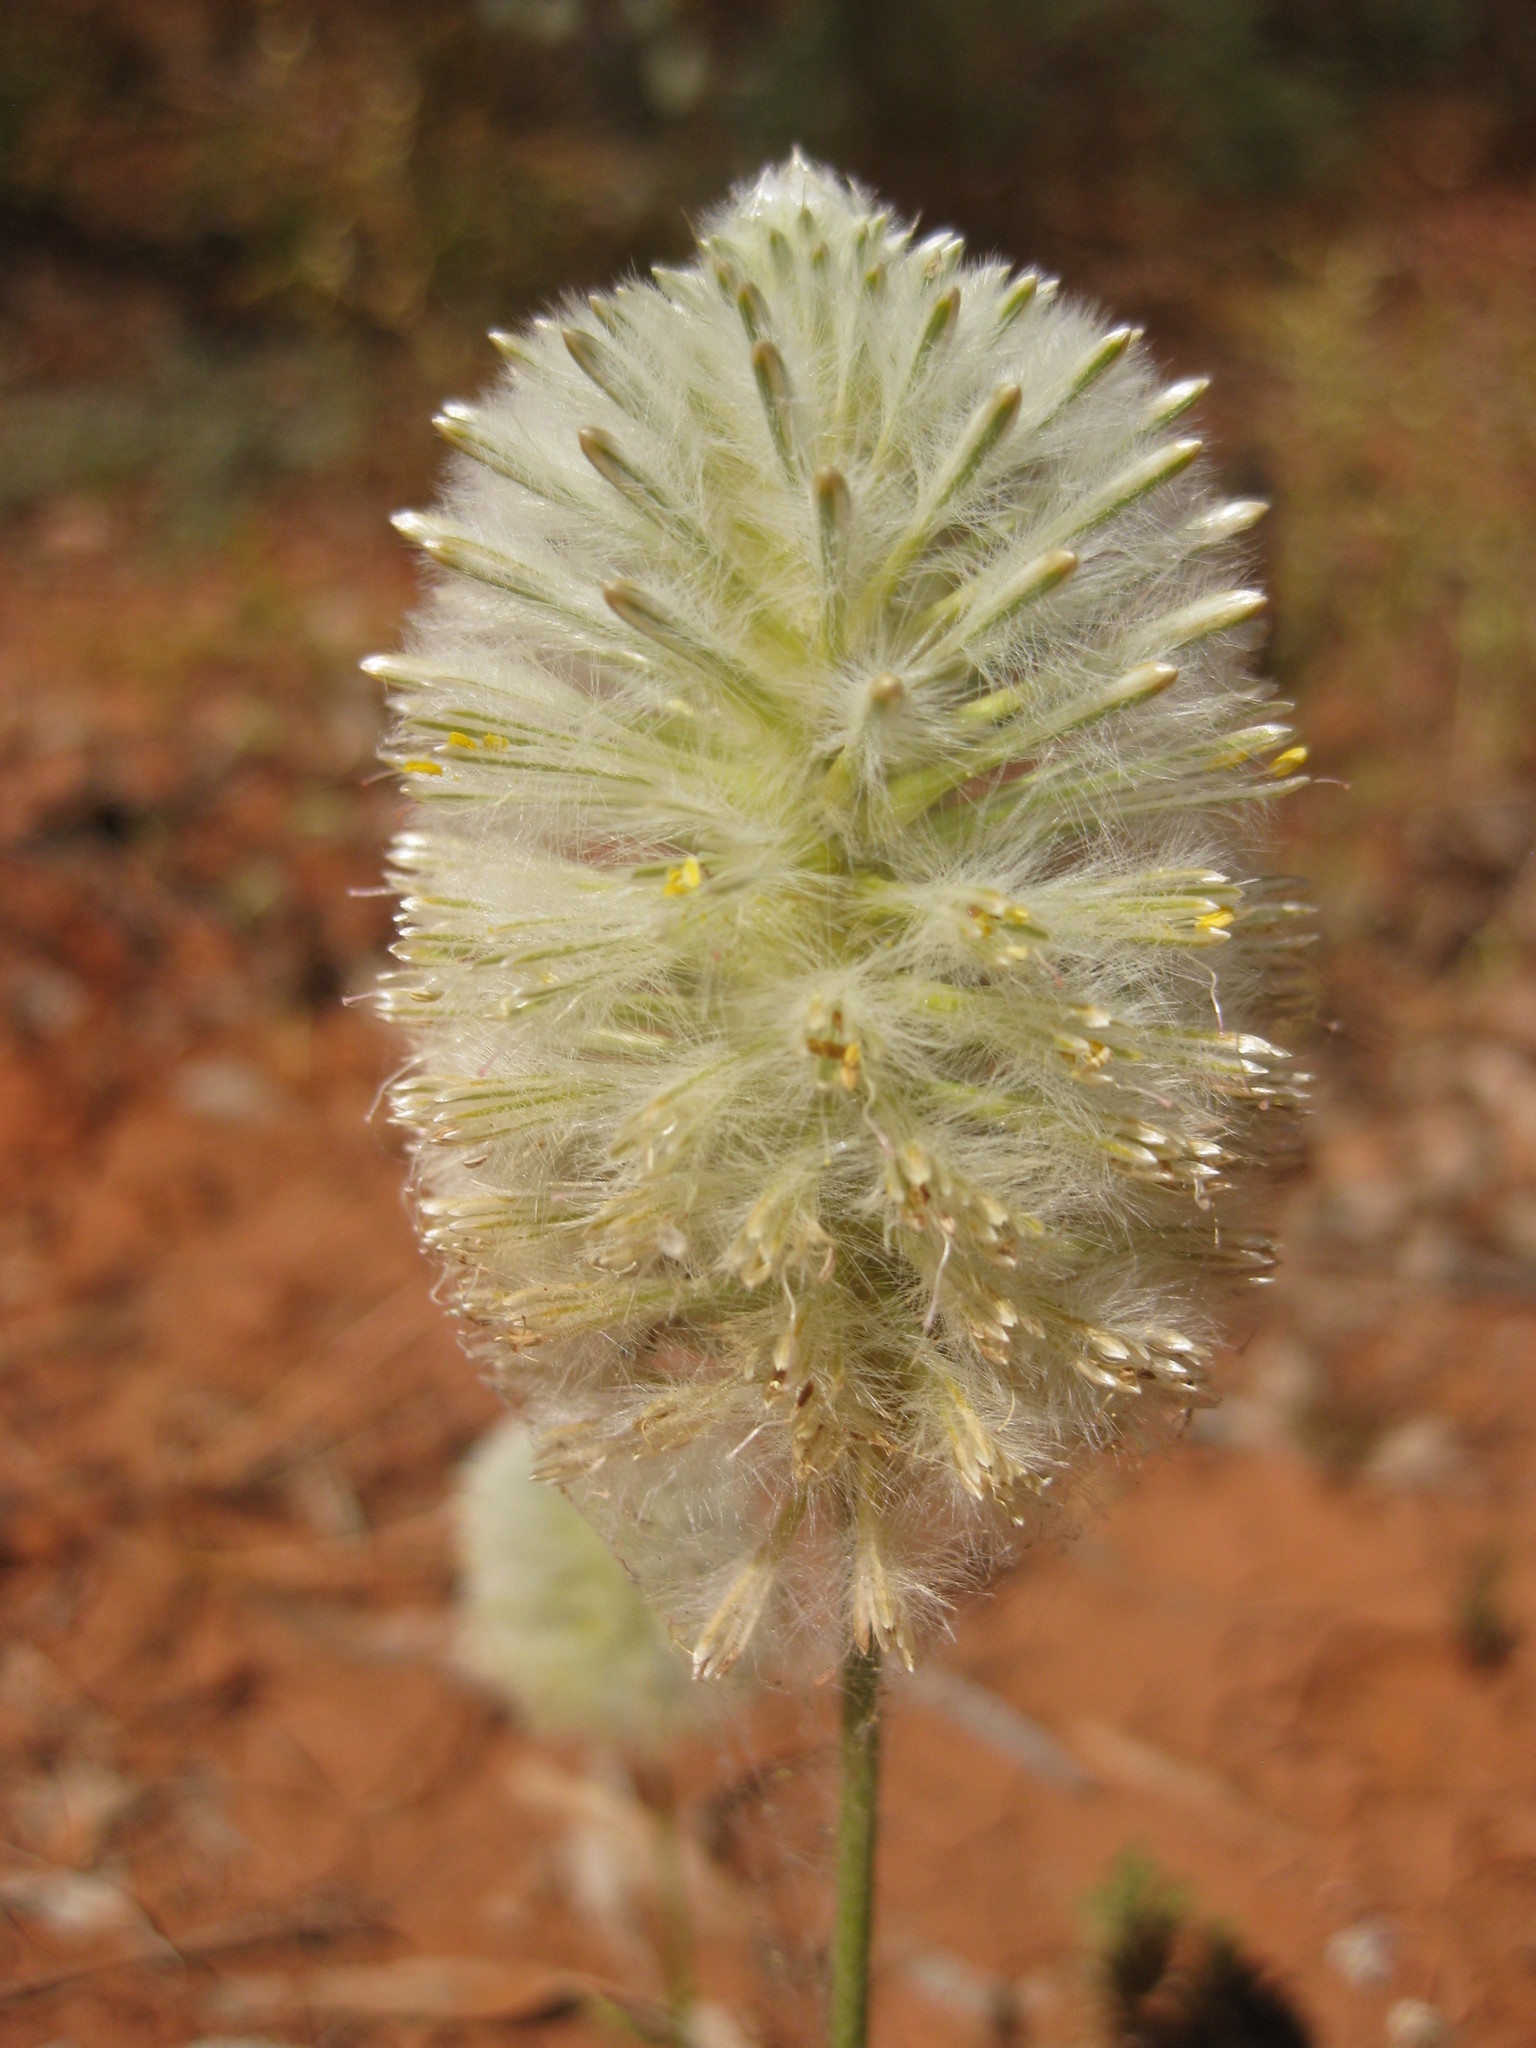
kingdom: Plantae
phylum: Tracheophyta
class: Magnoliopsida
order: Caryophyllales
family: Amaranthaceae
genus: Ptilotus
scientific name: Ptilotus xerophilus
